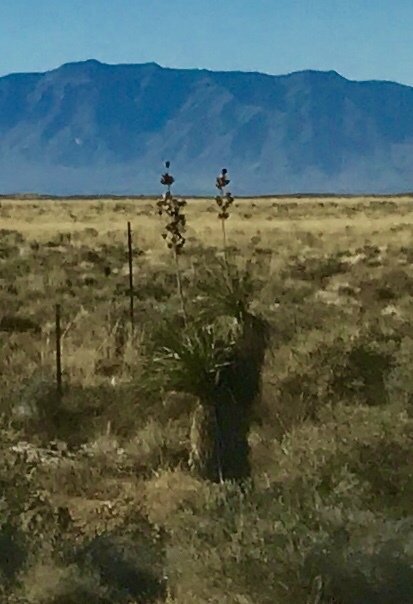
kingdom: Plantae
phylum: Tracheophyta
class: Liliopsida
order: Asparagales
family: Asparagaceae
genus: Yucca
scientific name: Yucca elata
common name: Palmella
